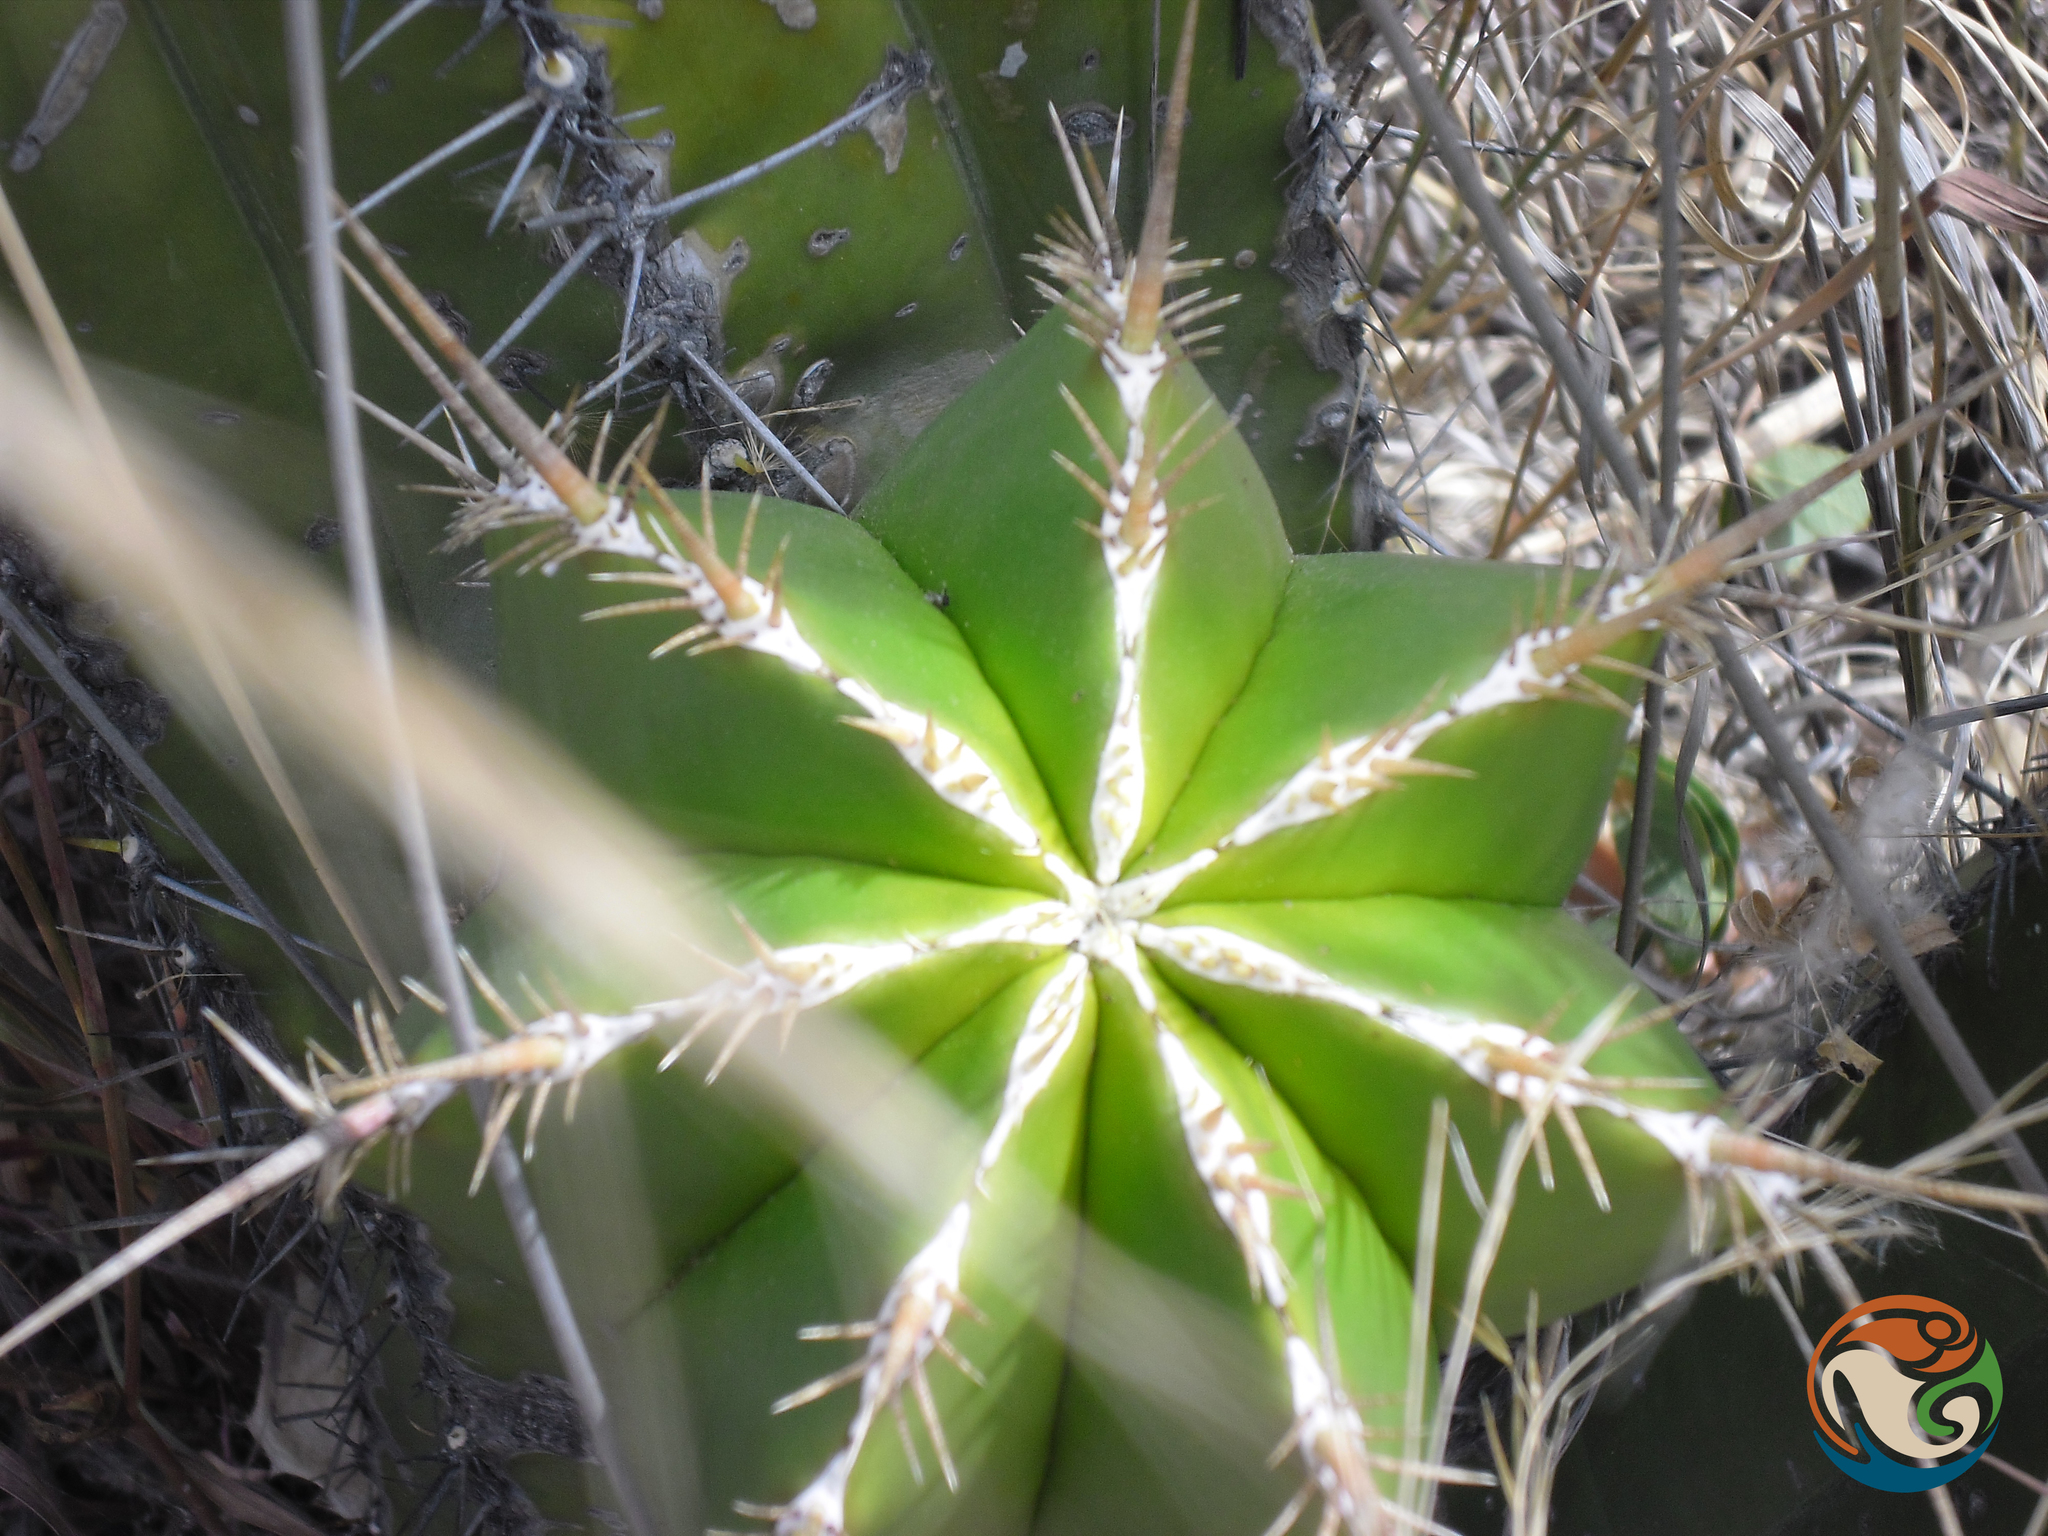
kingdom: Plantae
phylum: Tracheophyta
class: Magnoliopsida
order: Caryophyllales
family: Cactaceae
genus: Myrtillocactus
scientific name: Myrtillocactus chiotilla
